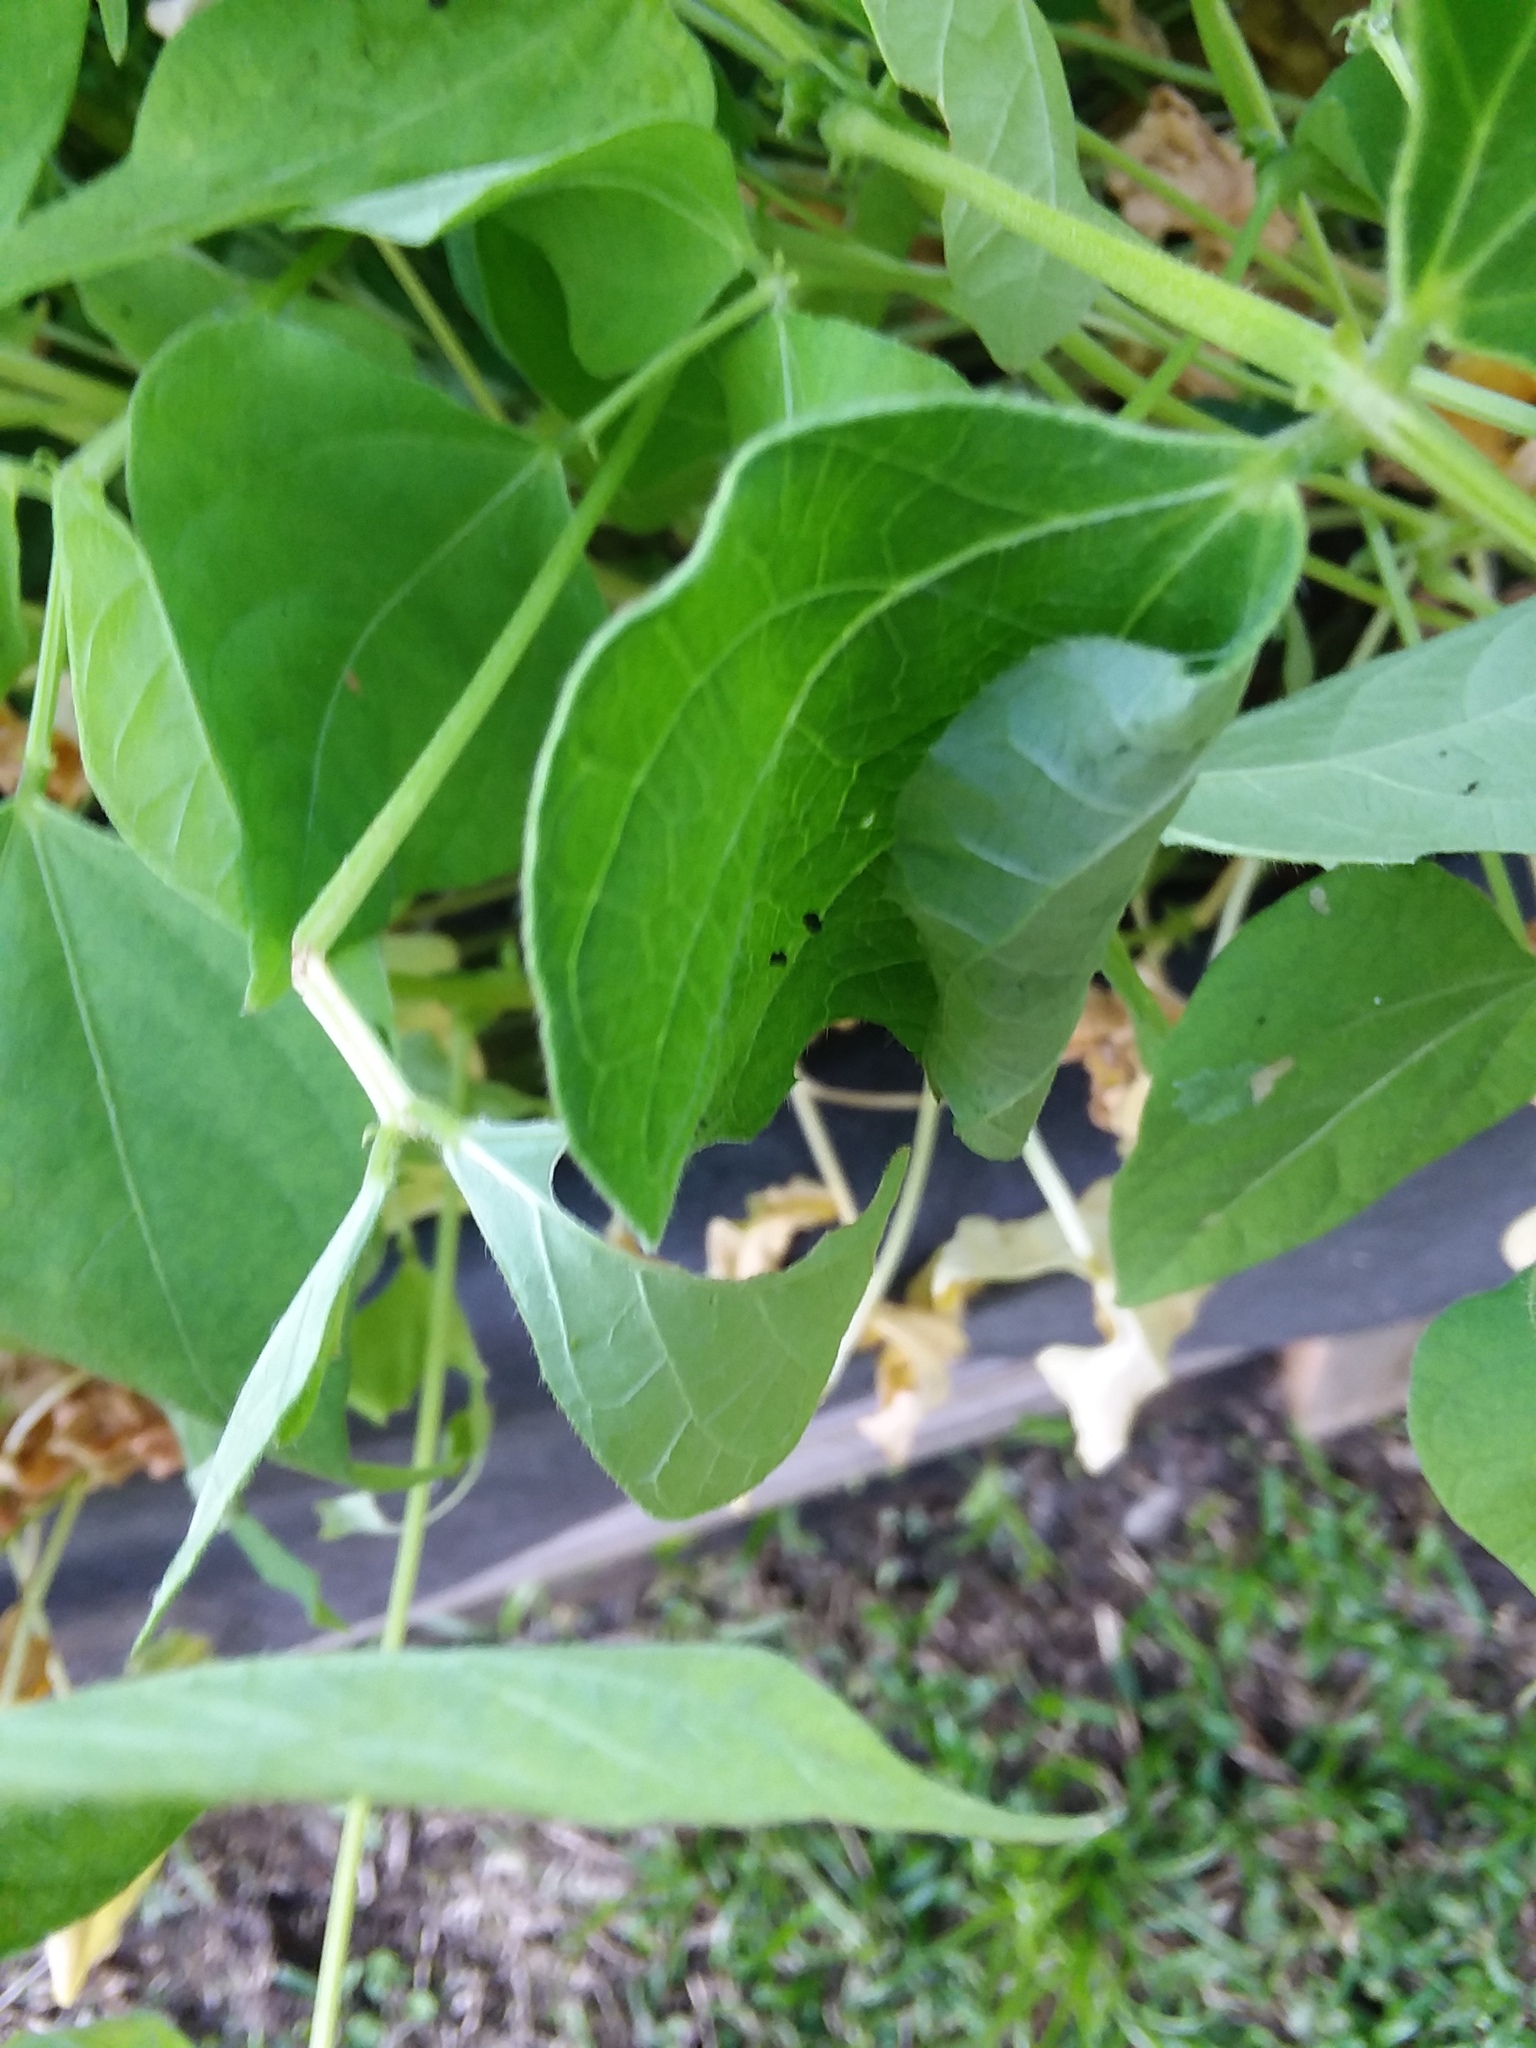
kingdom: Animalia
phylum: Arthropoda
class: Insecta
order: Lepidoptera
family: Hesperiidae
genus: Urbanus
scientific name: Urbanus proteus
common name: Long-tailed skipper
